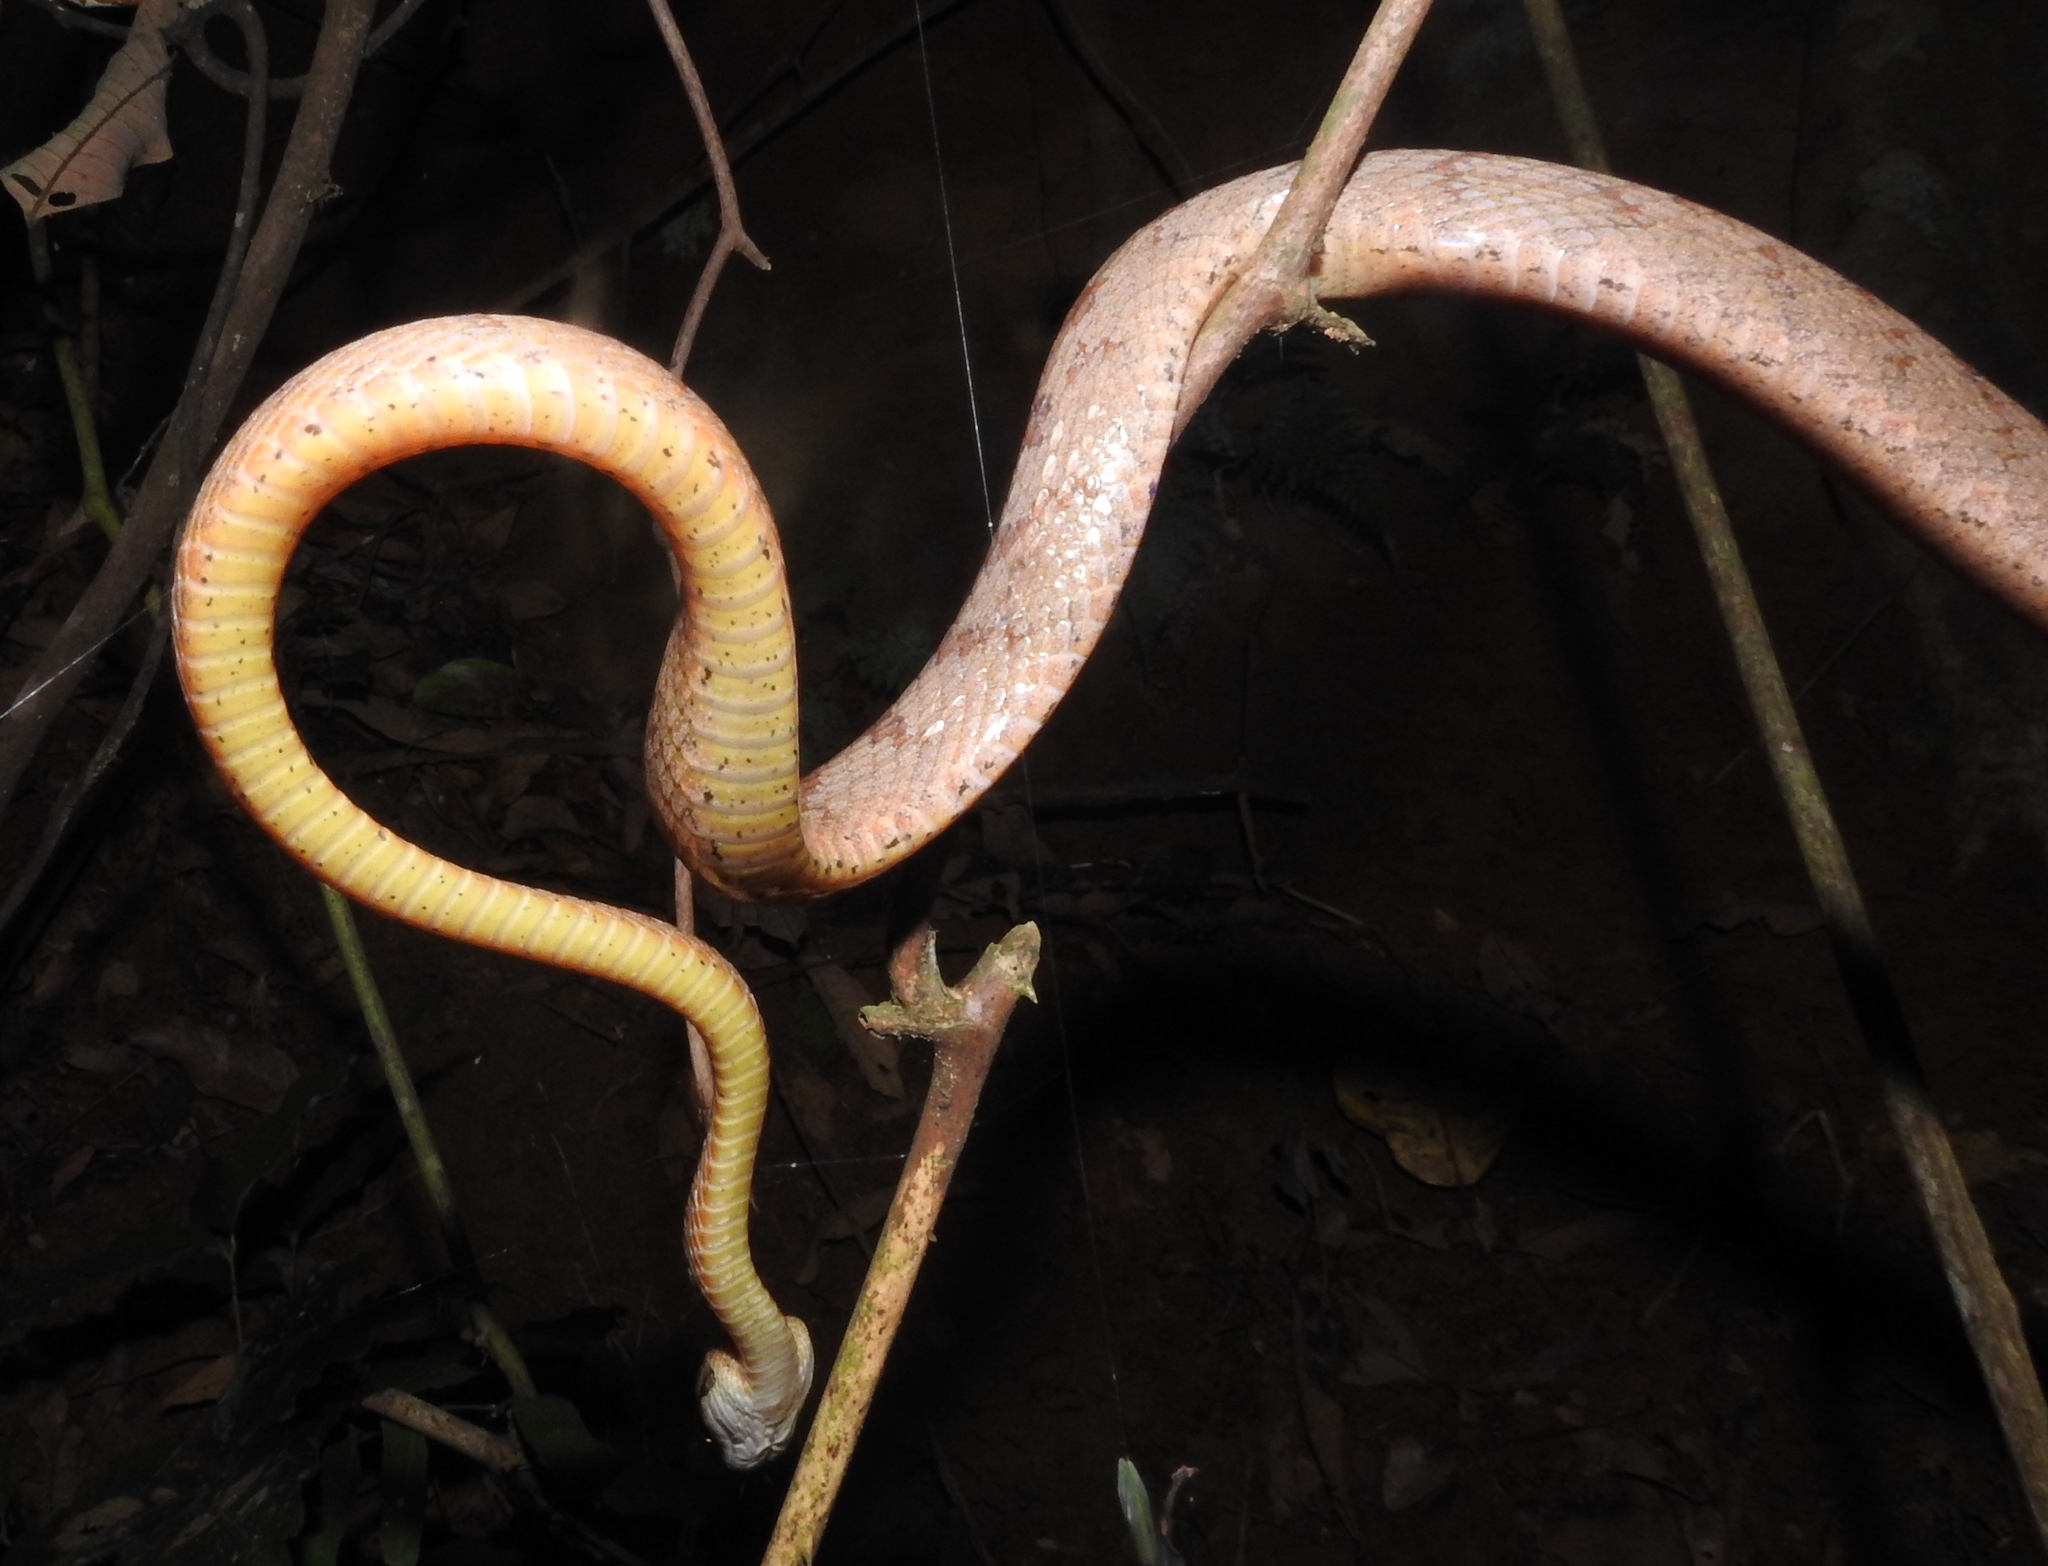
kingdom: Animalia
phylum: Chordata
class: Squamata
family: Colubridae
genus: Boiga
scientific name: Boiga nuchalis
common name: Collared catsnake
